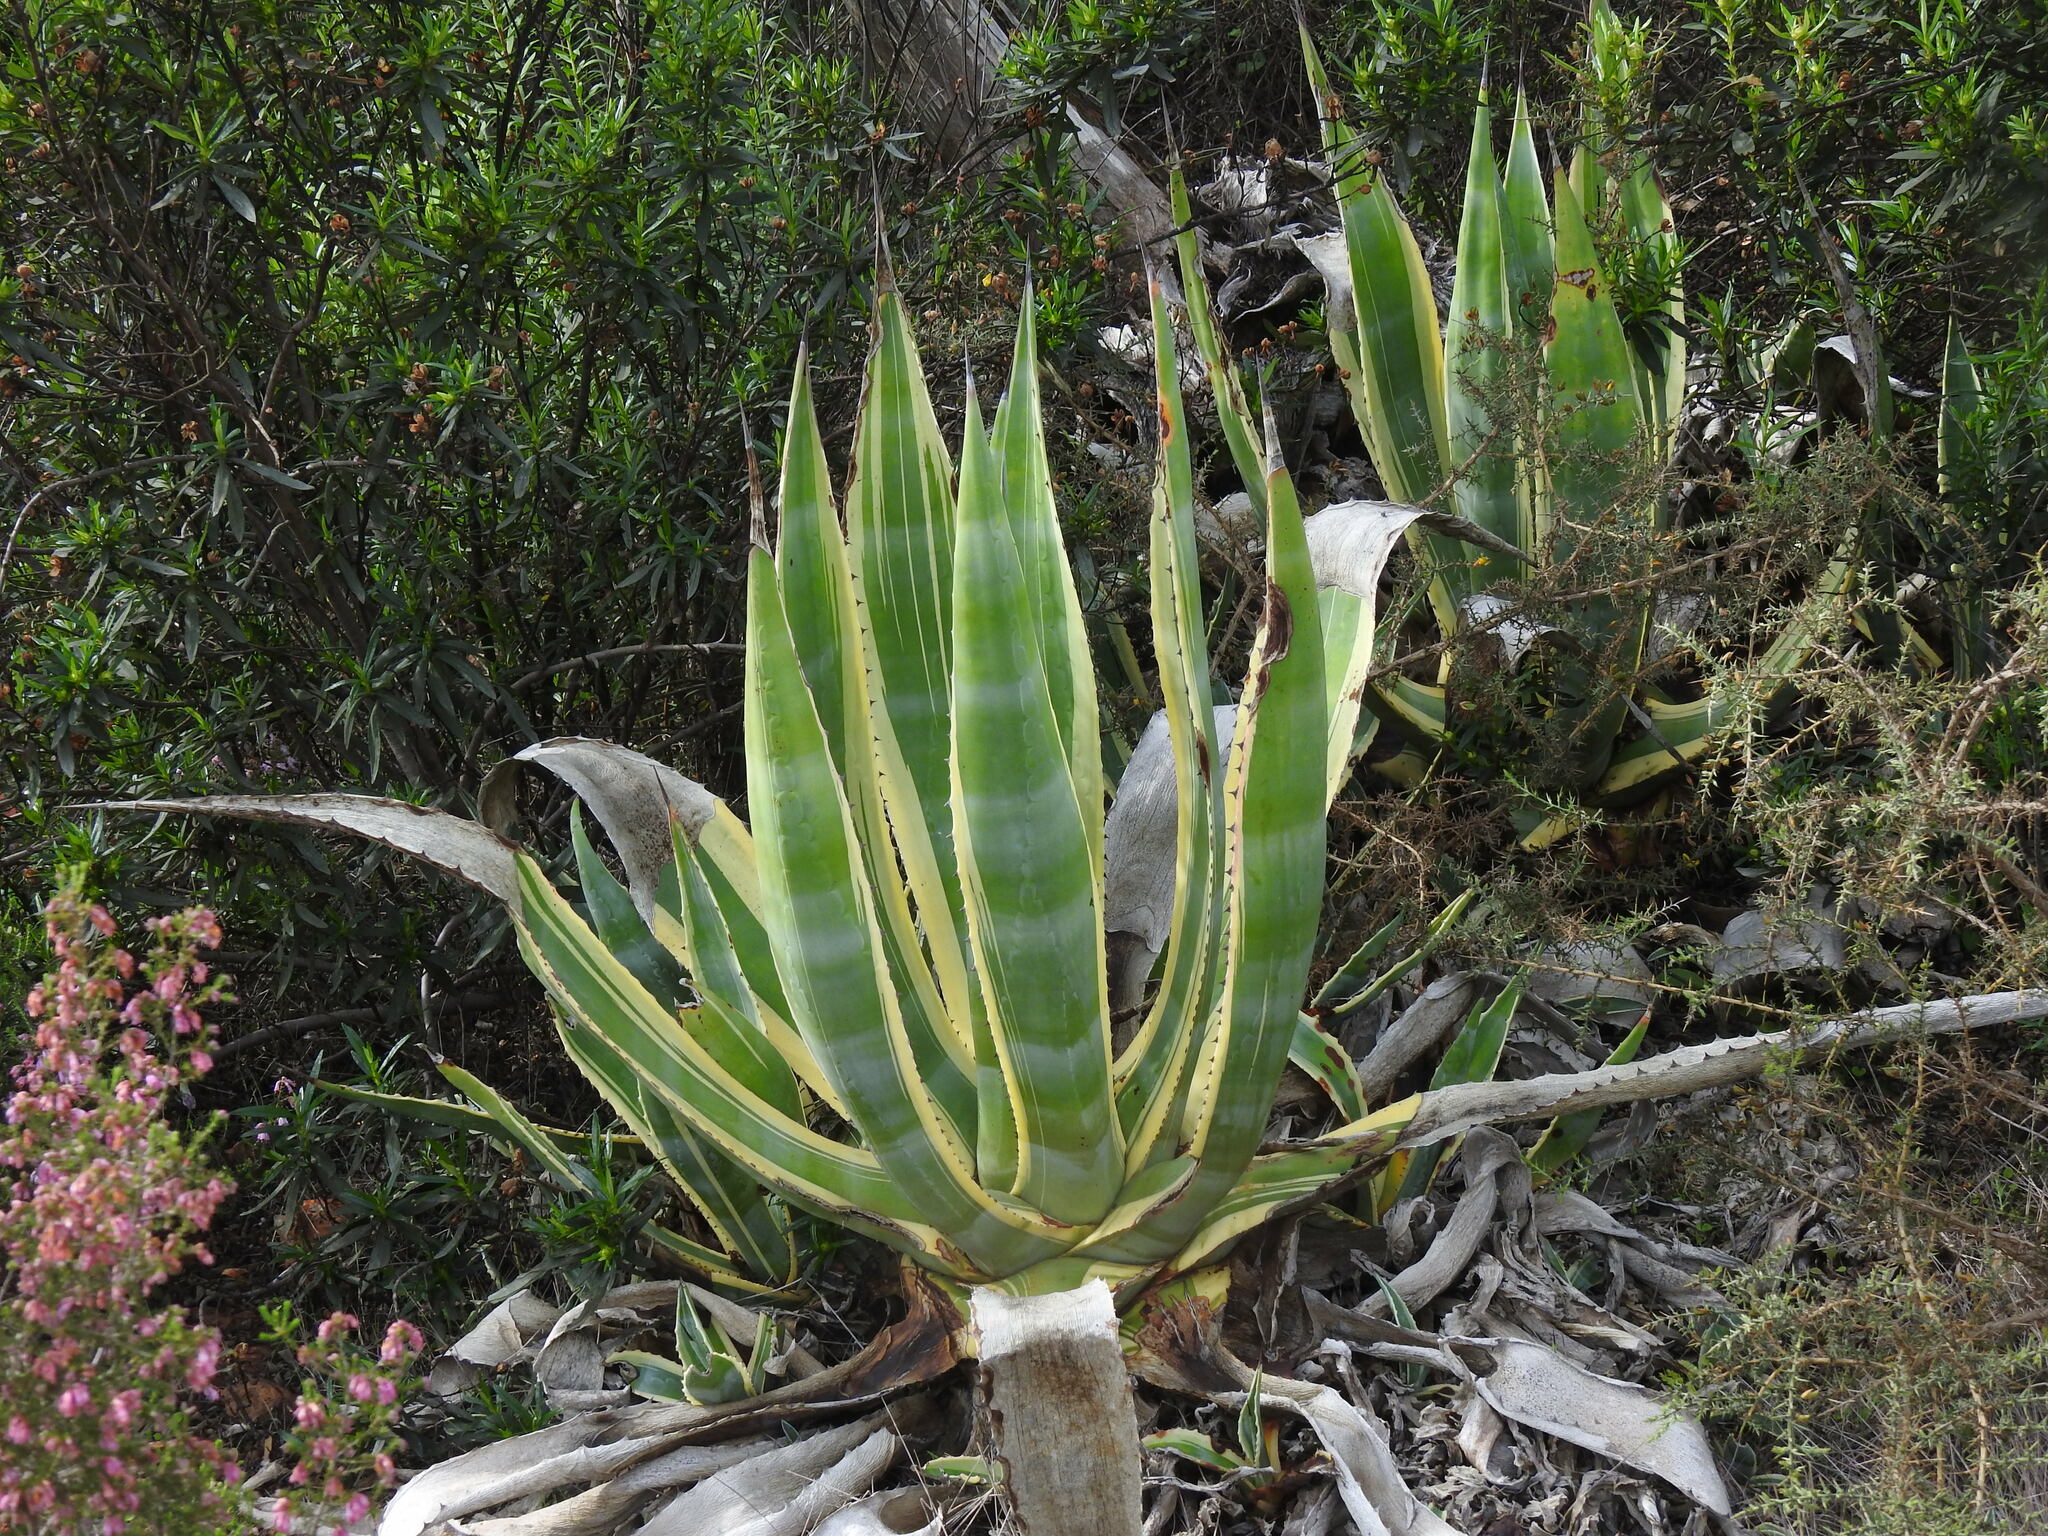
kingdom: Plantae
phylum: Tracheophyta
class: Liliopsida
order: Asparagales
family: Asparagaceae
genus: Agave
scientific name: Agave americana
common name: Centuryplant
